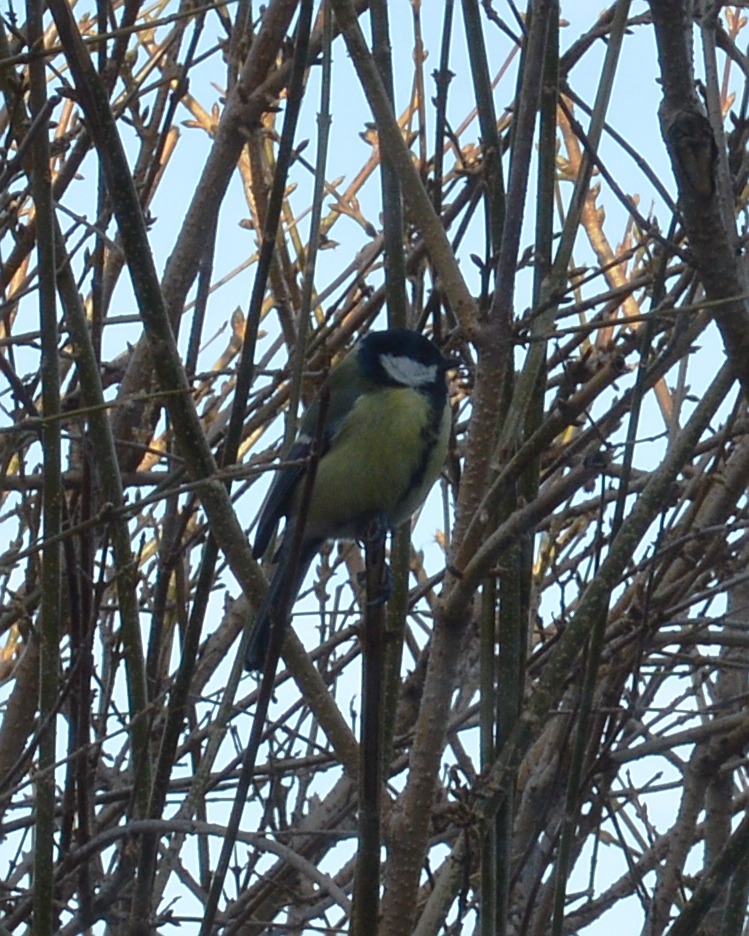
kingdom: Animalia
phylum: Chordata
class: Aves
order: Passeriformes
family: Paridae
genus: Parus
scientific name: Parus major
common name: Great tit
